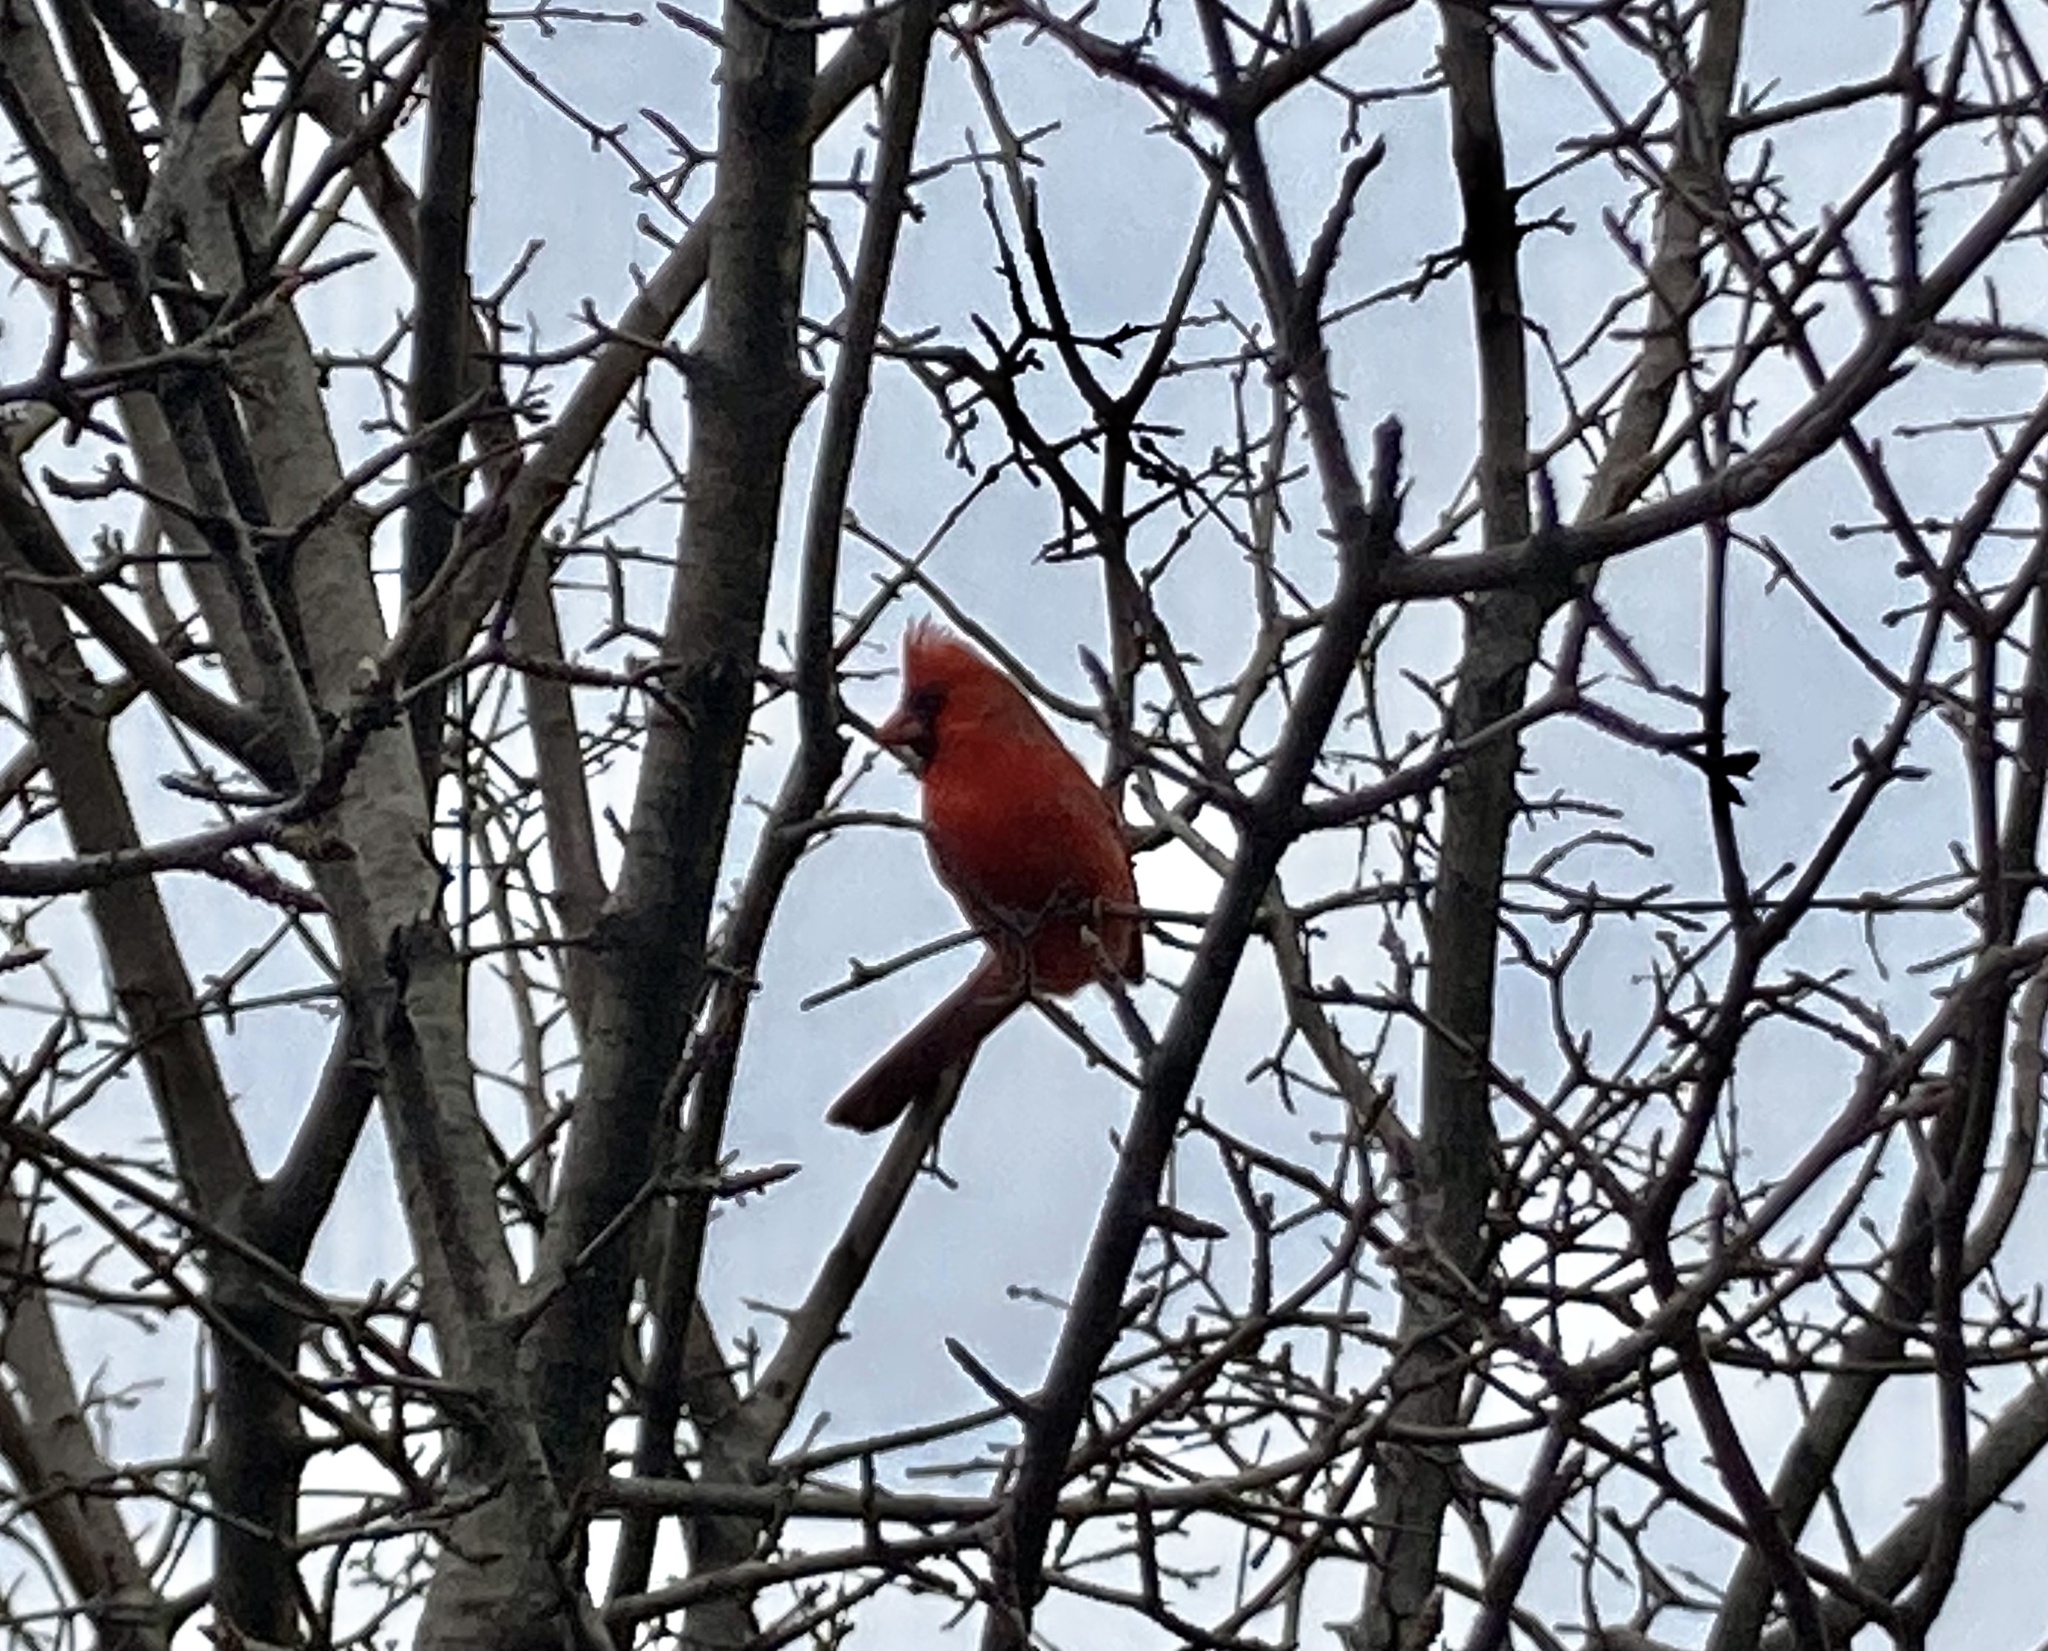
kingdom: Animalia
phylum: Chordata
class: Aves
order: Passeriformes
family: Cardinalidae
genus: Cardinalis
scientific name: Cardinalis cardinalis
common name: Northern cardinal
